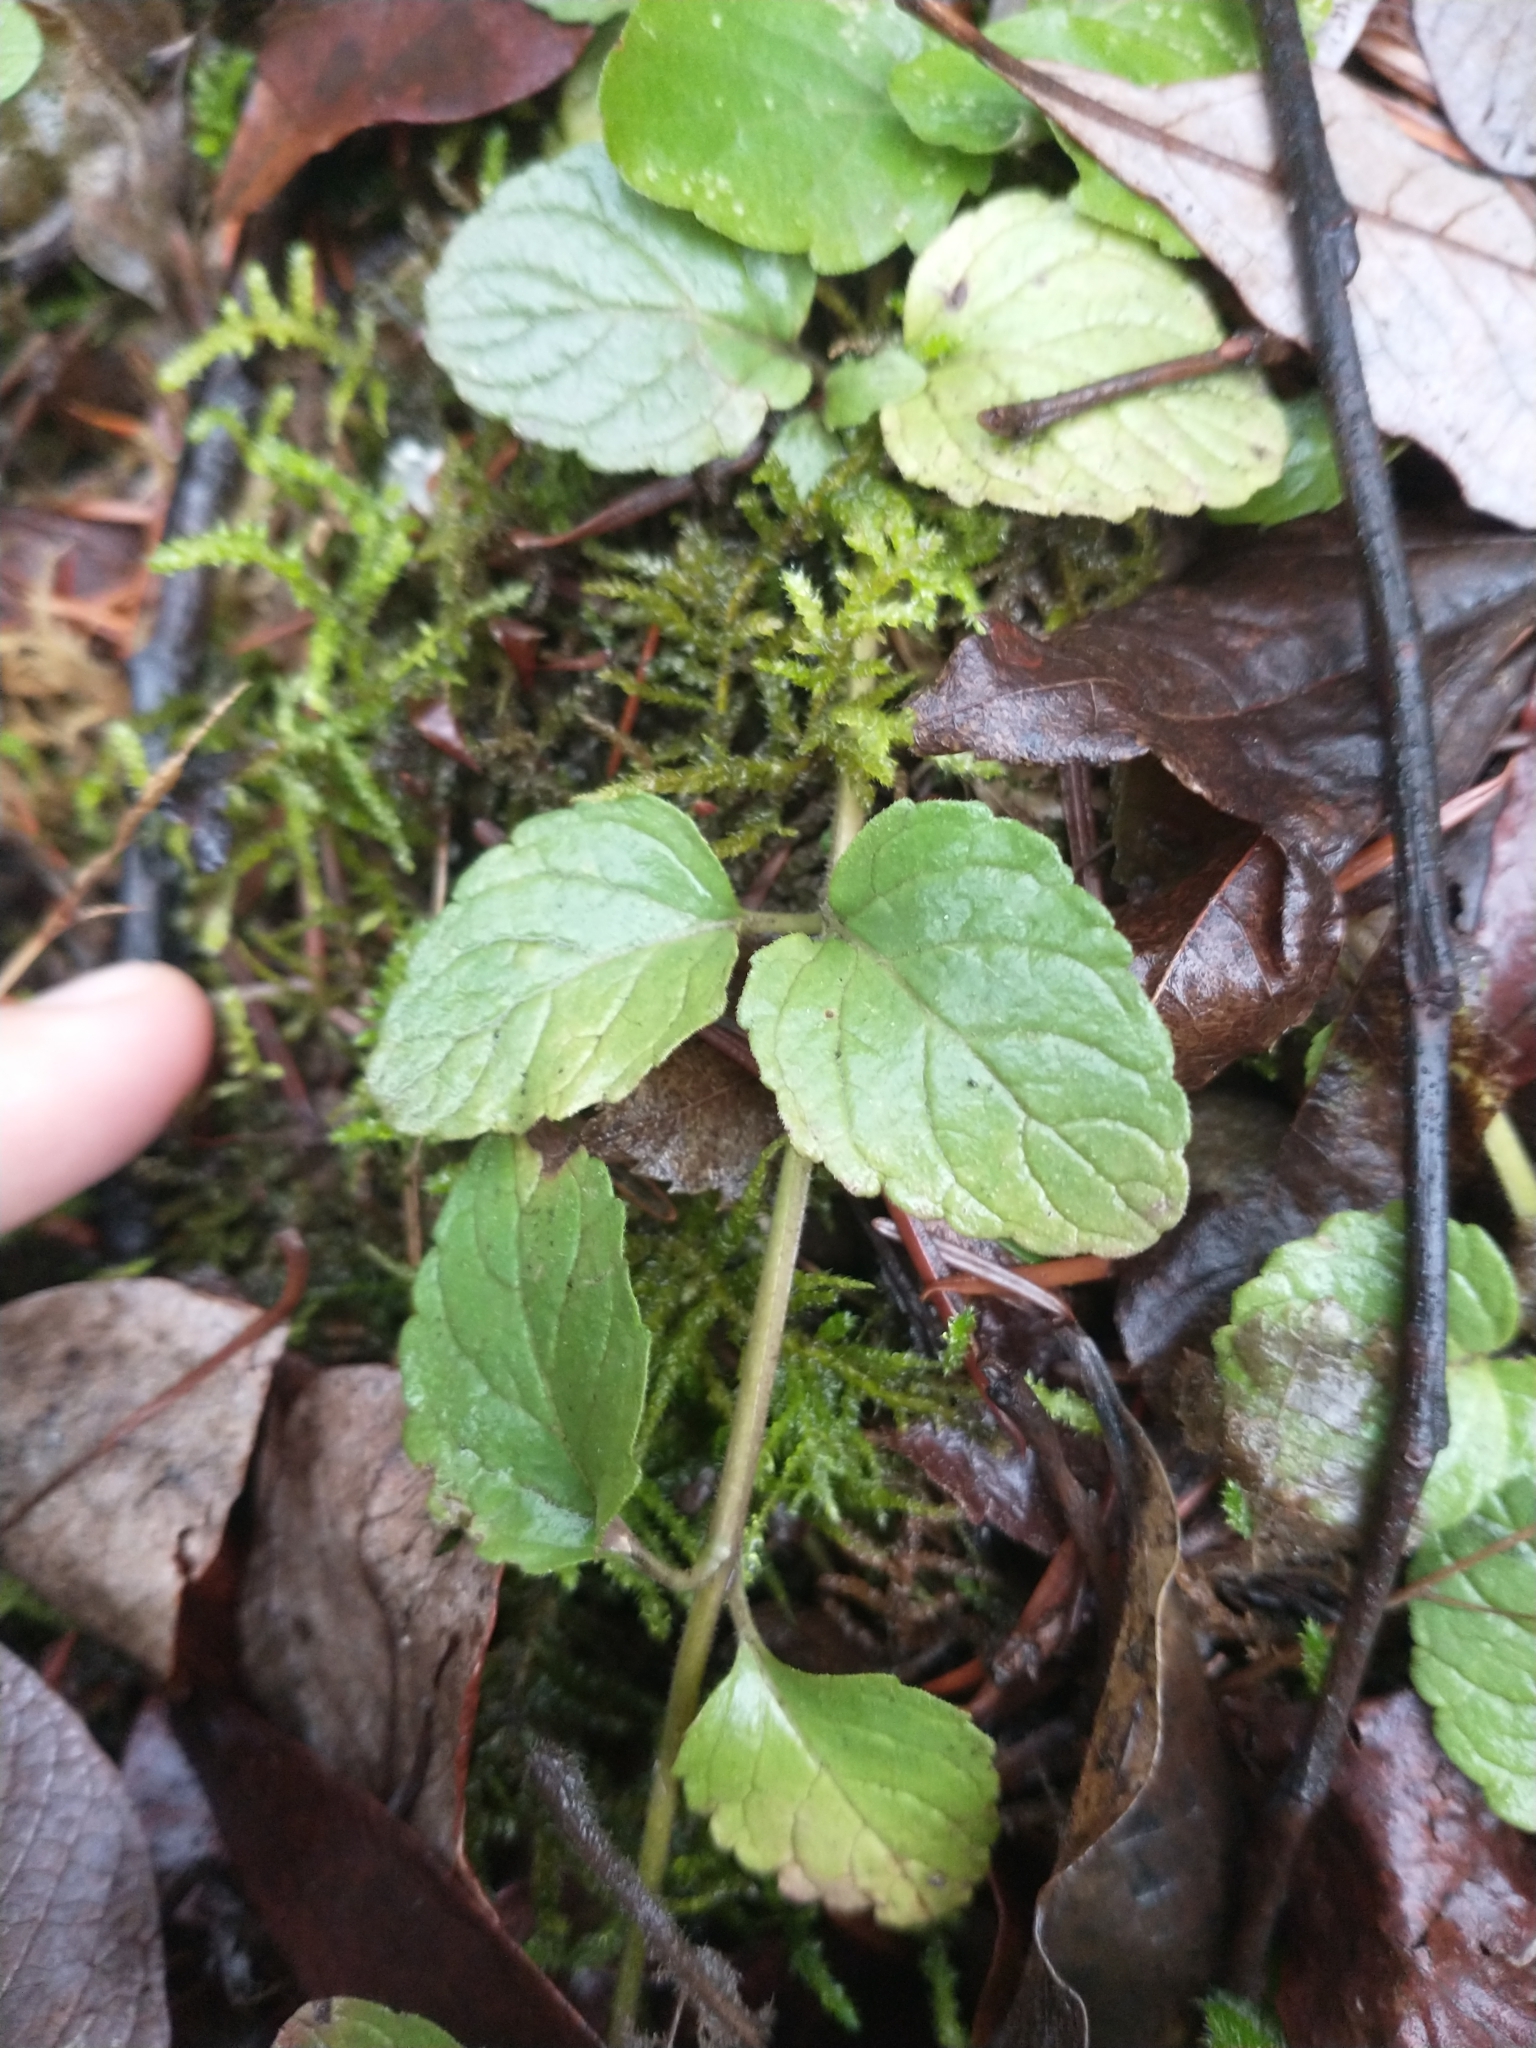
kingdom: Plantae
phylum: Tracheophyta
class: Magnoliopsida
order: Lamiales
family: Lamiaceae
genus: Micromeria
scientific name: Micromeria douglasii
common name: Yerba buena
